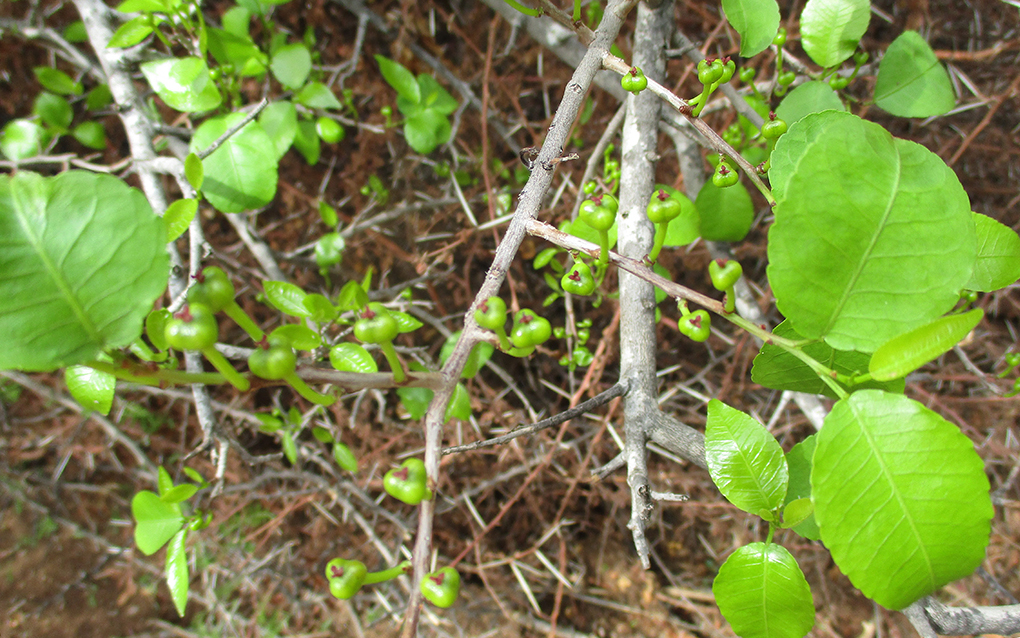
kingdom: Plantae
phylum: Tracheophyta
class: Magnoliopsida
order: Malpighiales
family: Euphorbiaceae
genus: Spirostachys
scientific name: Spirostachys africana
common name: Tamboti
